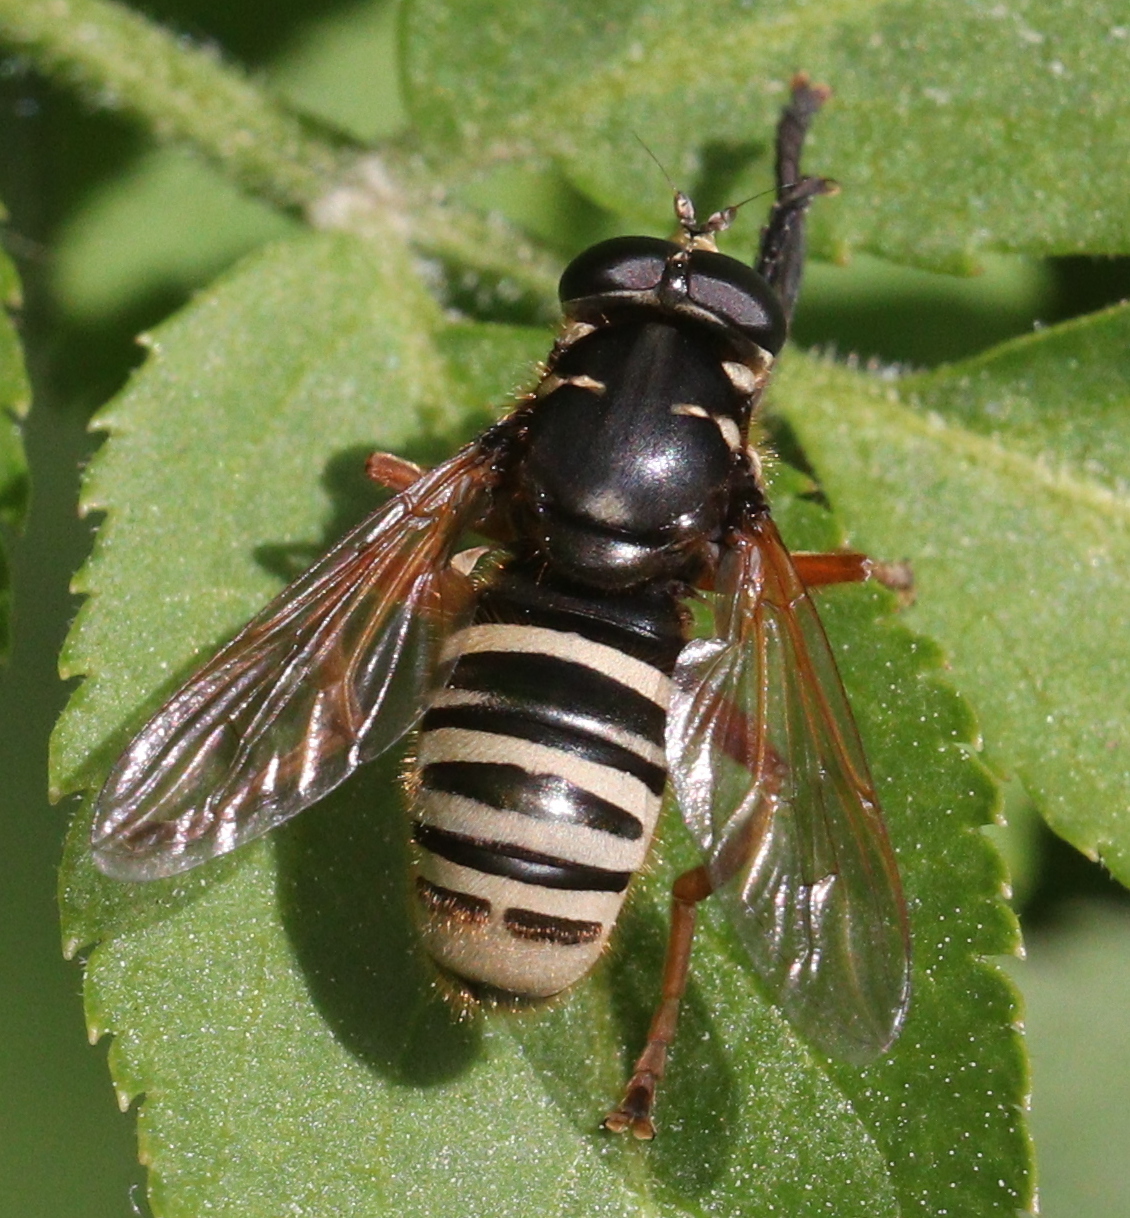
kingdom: Animalia
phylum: Arthropoda
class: Insecta
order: Diptera
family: Syrphidae
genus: Temnostoma
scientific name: Temnostoma apiforme
